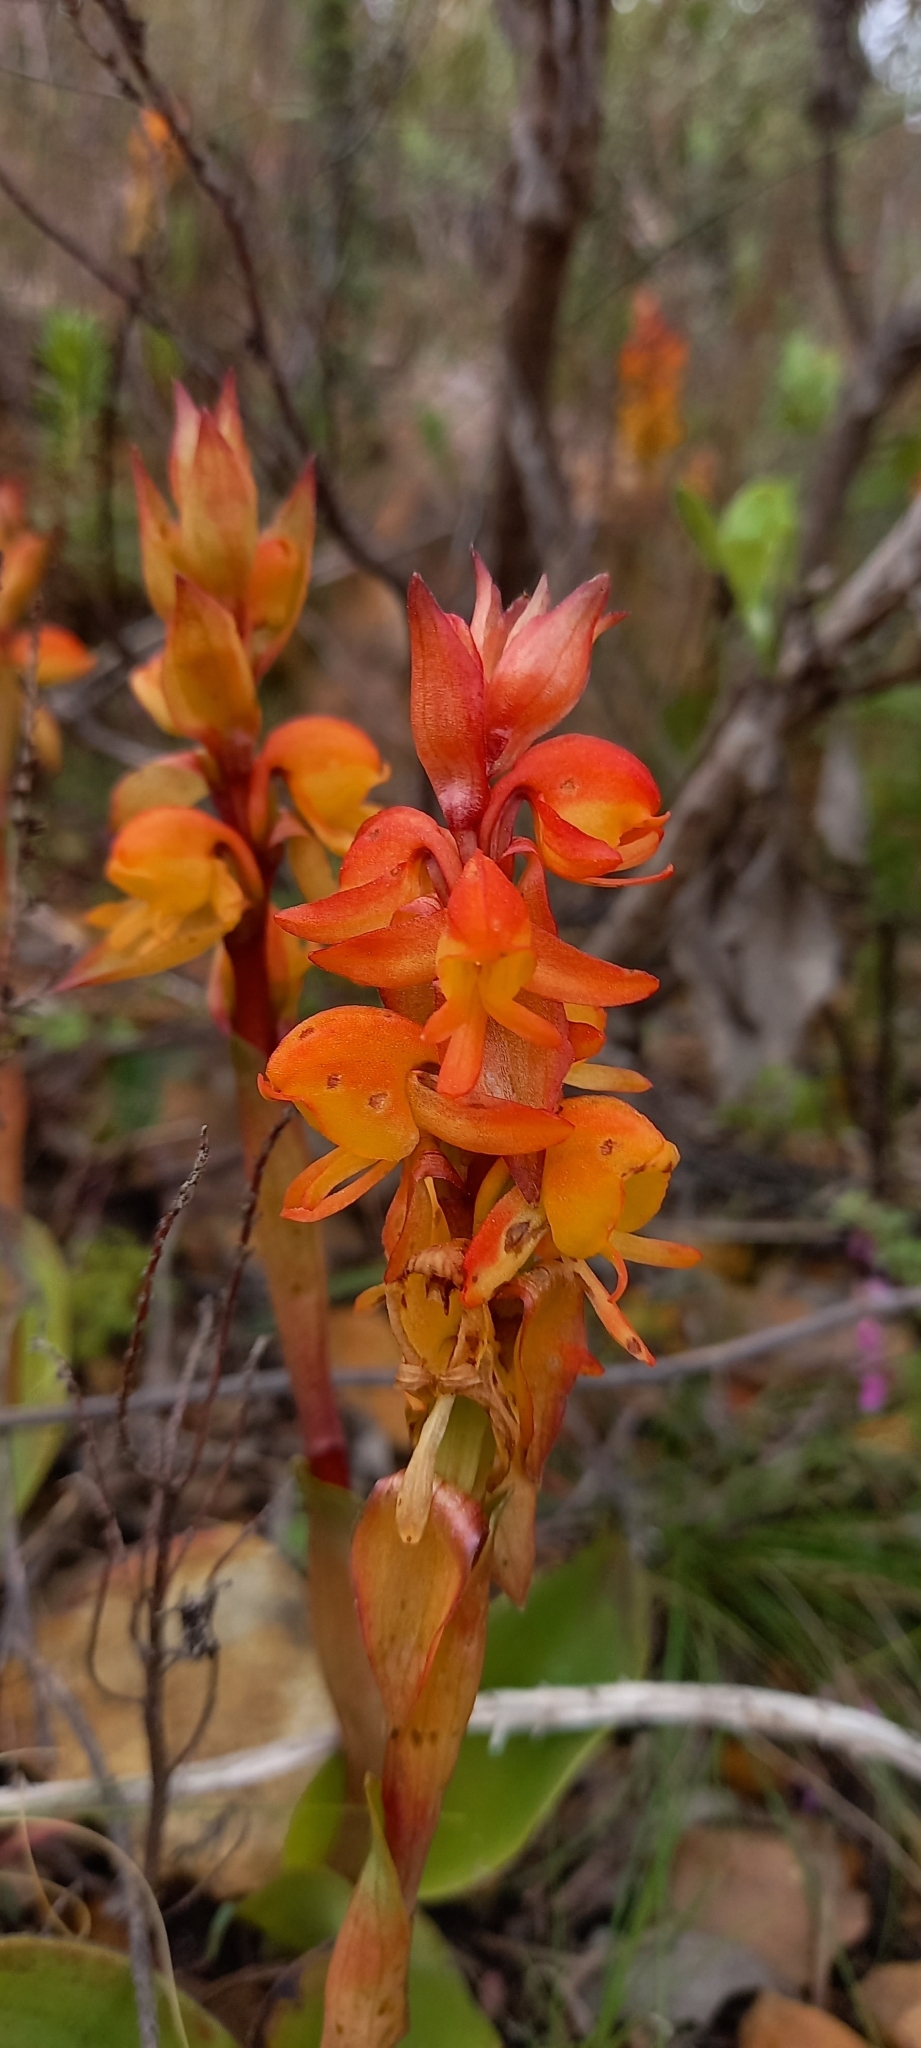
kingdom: Plantae
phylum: Tracheophyta
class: Liliopsida
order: Asparagales
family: Orchidaceae
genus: Satyrium
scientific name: Satyrium coriifolium
